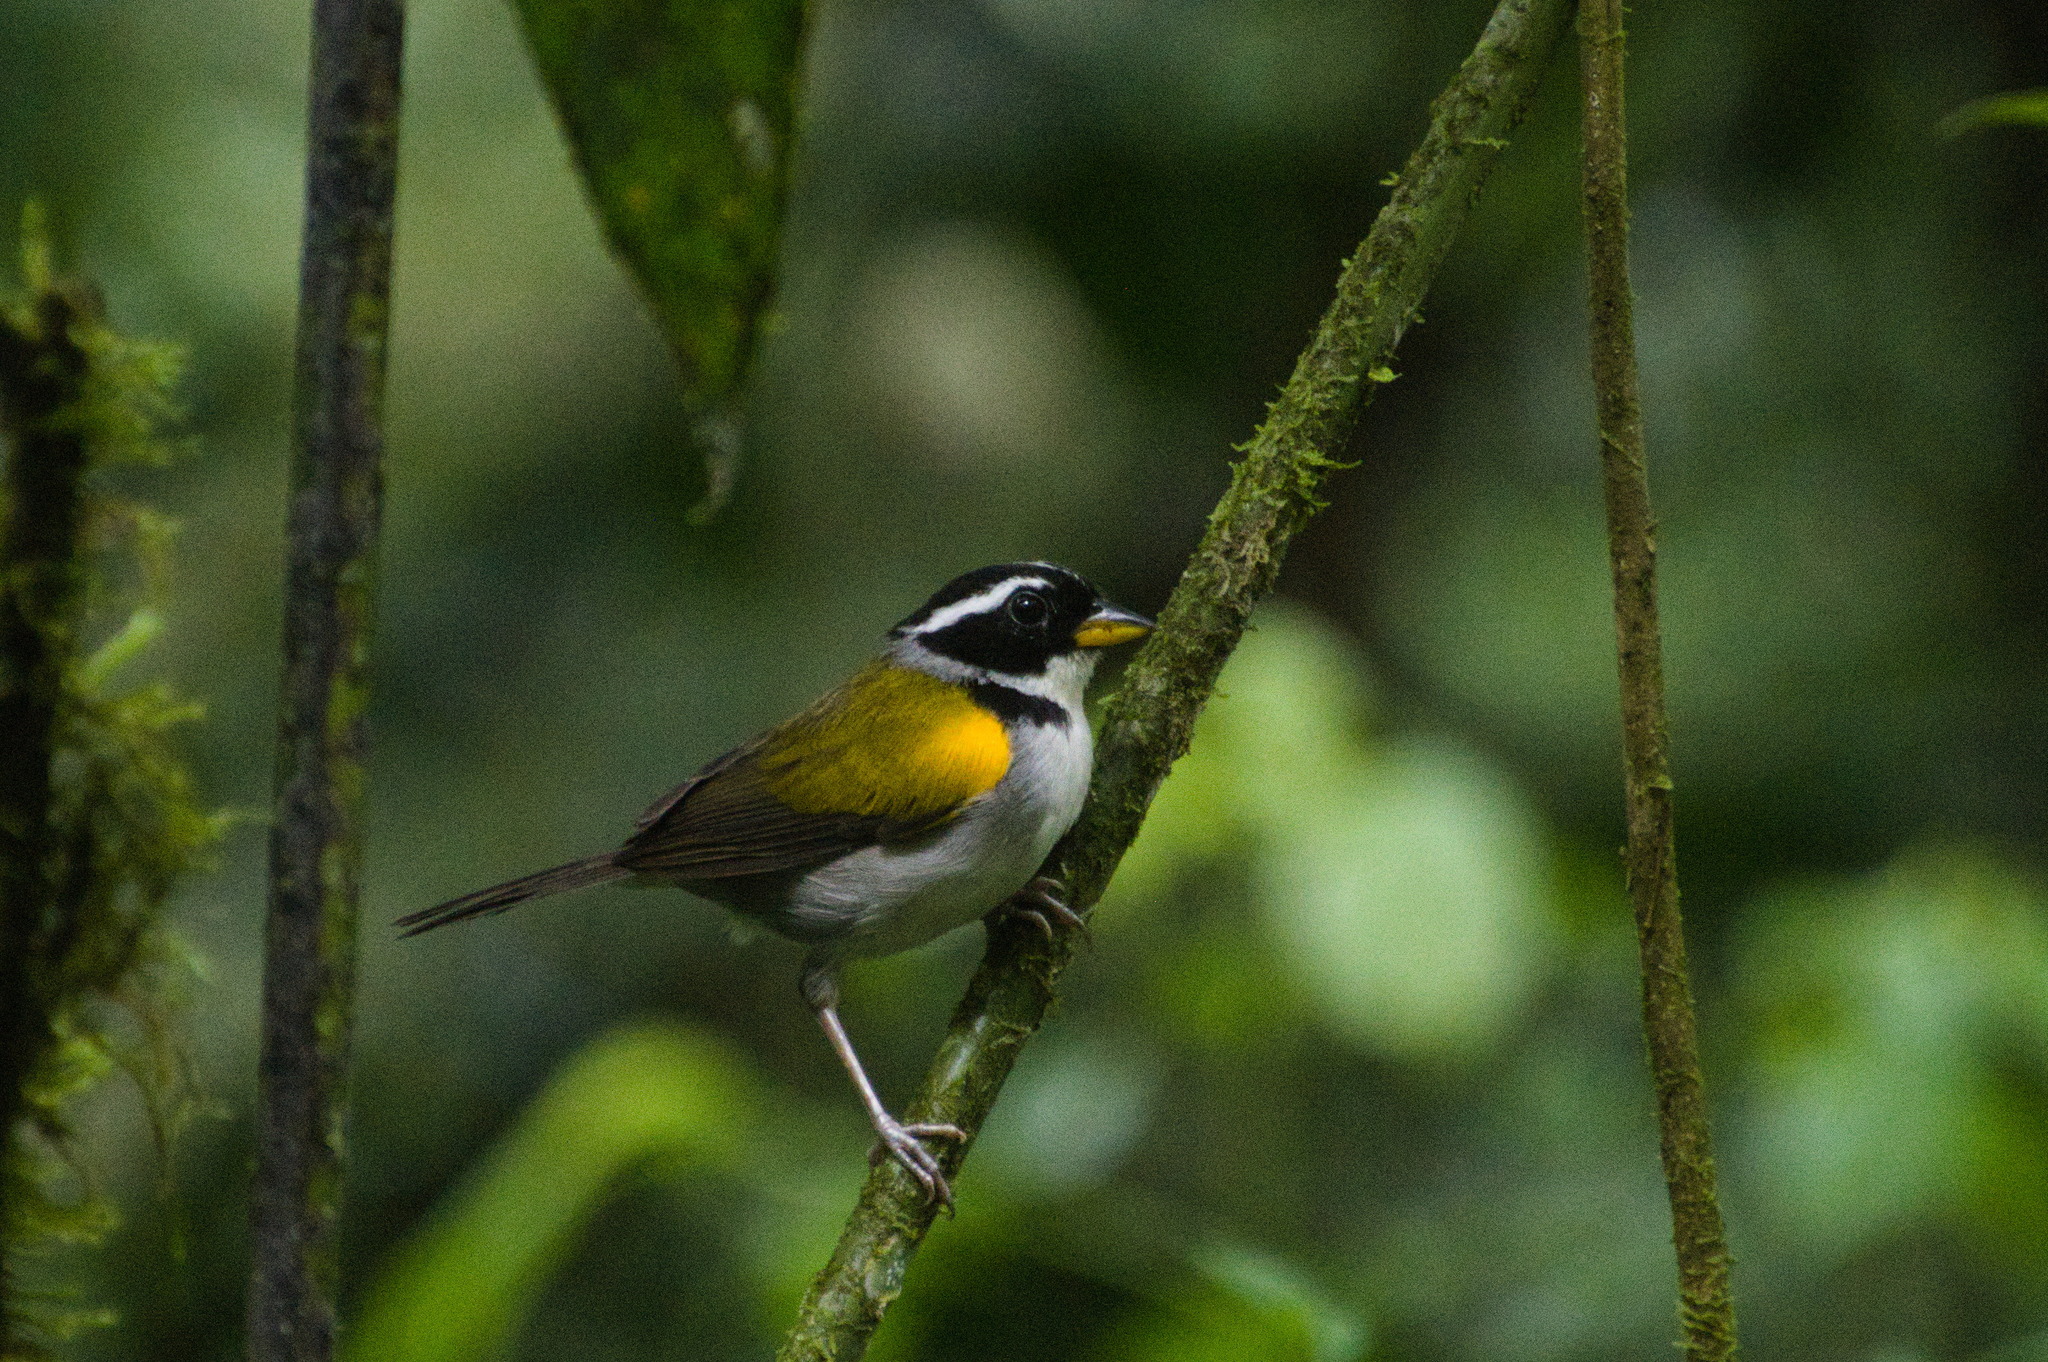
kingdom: Animalia
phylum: Chordata
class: Aves
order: Passeriformes
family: Passerellidae
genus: Arremon
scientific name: Arremon taciturnus
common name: Pectoral sparrow
